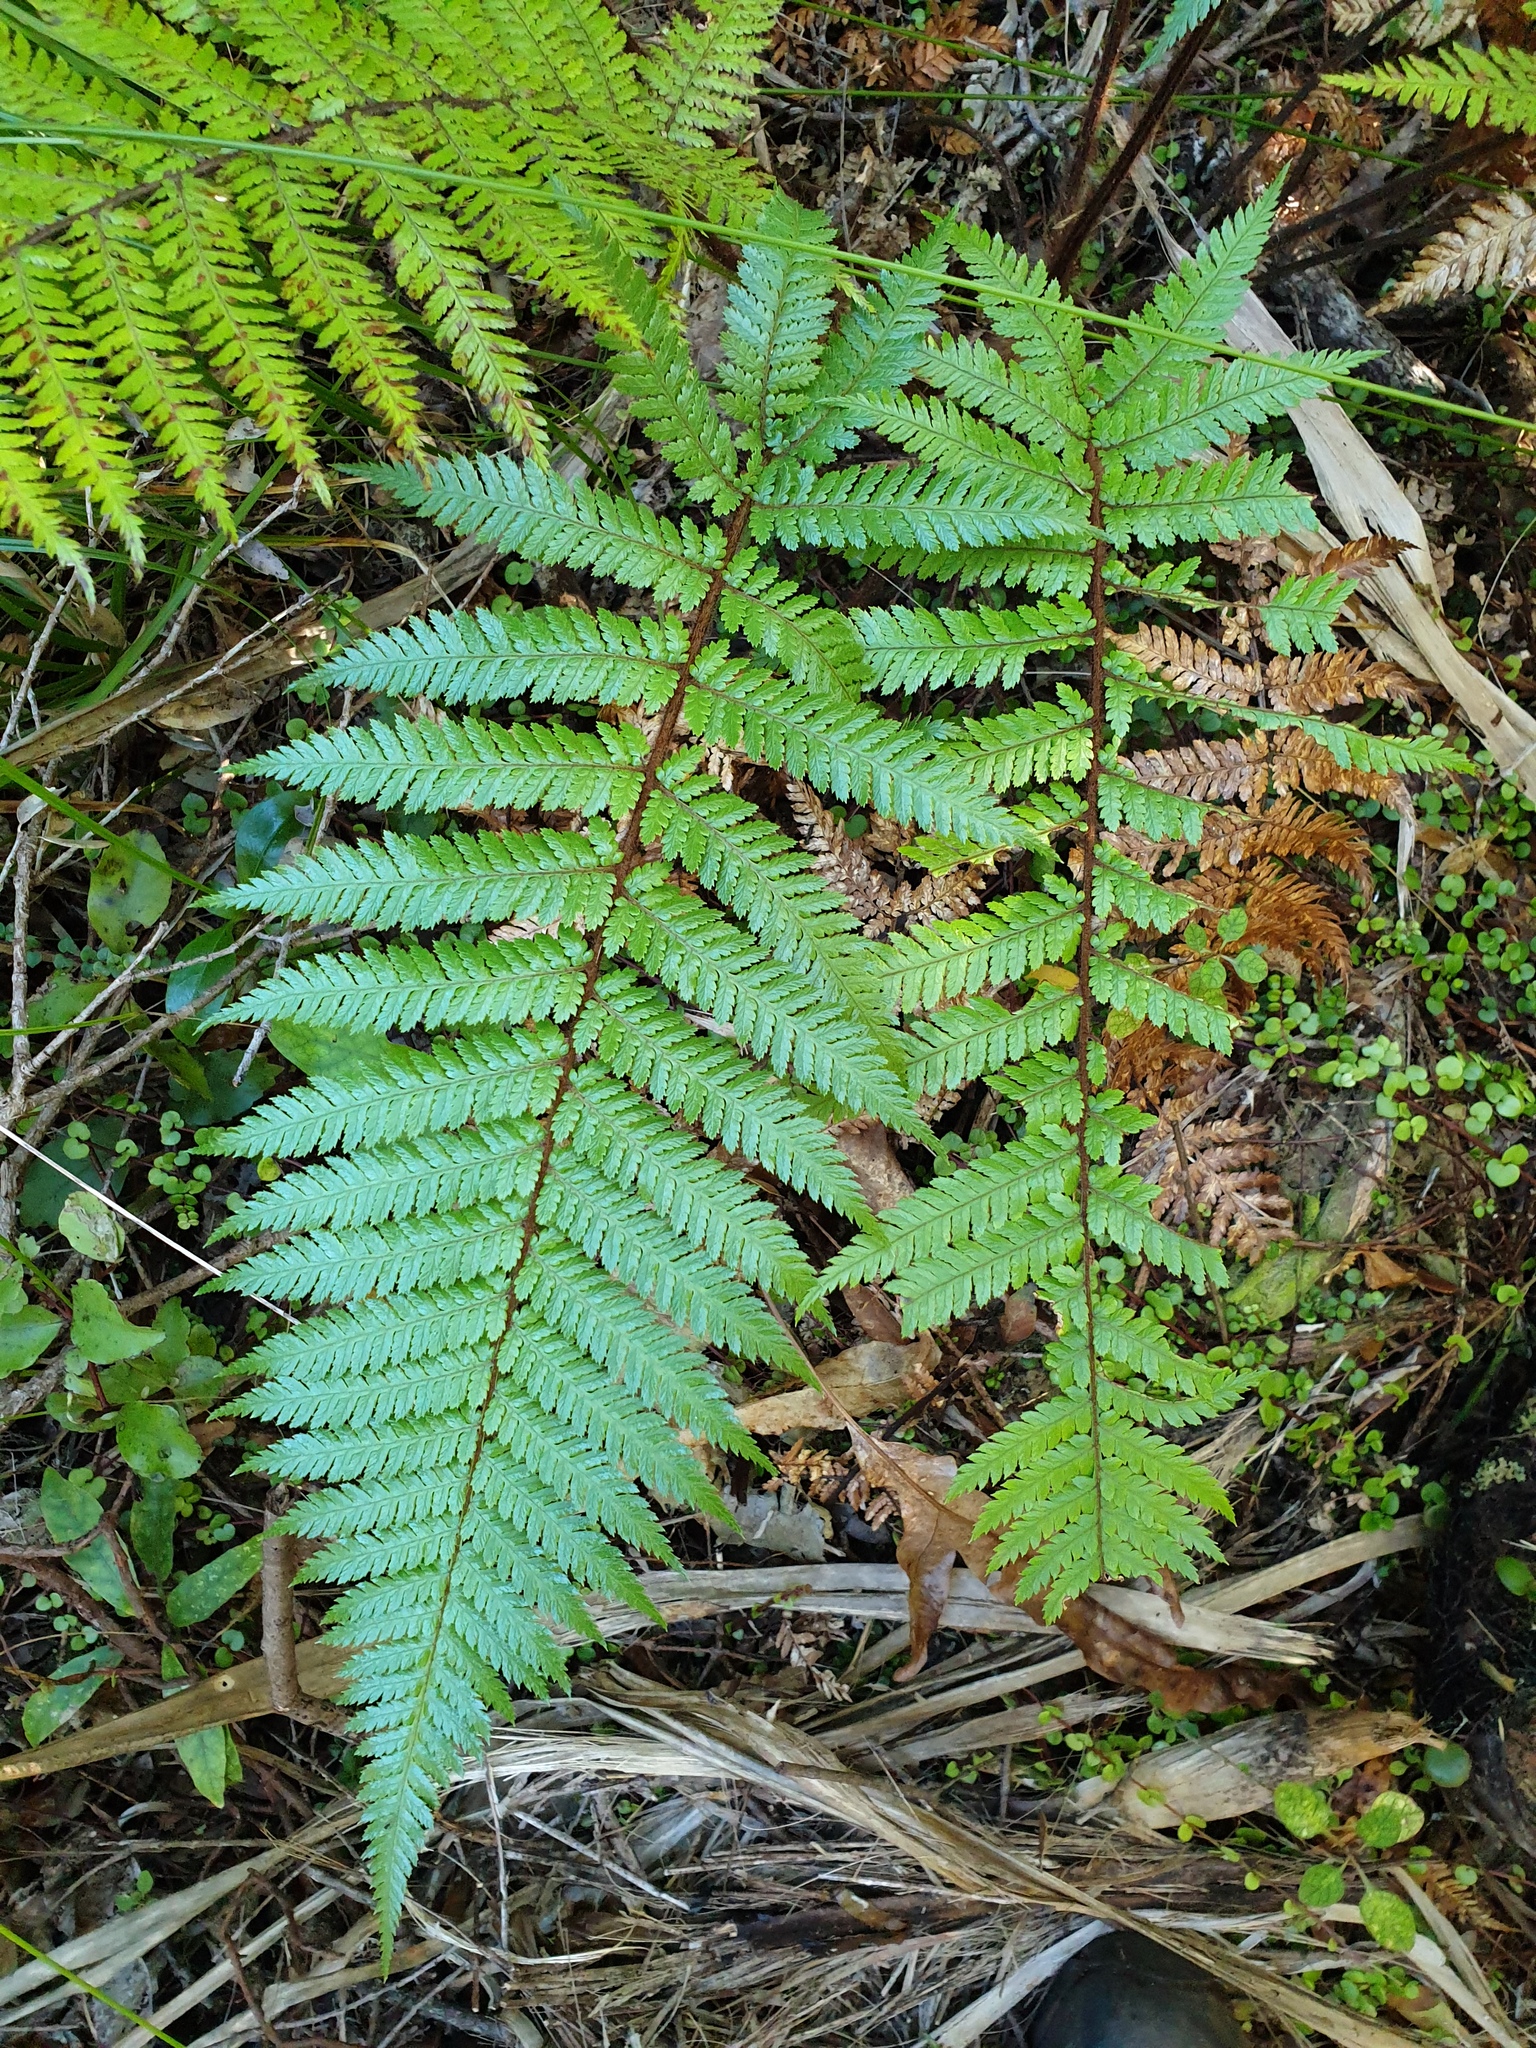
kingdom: Plantae
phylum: Tracheophyta
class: Polypodiopsida
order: Cyatheales
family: Dicksoniaceae
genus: Dicksonia
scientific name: Dicksonia squarrosa
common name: Hard treefern
